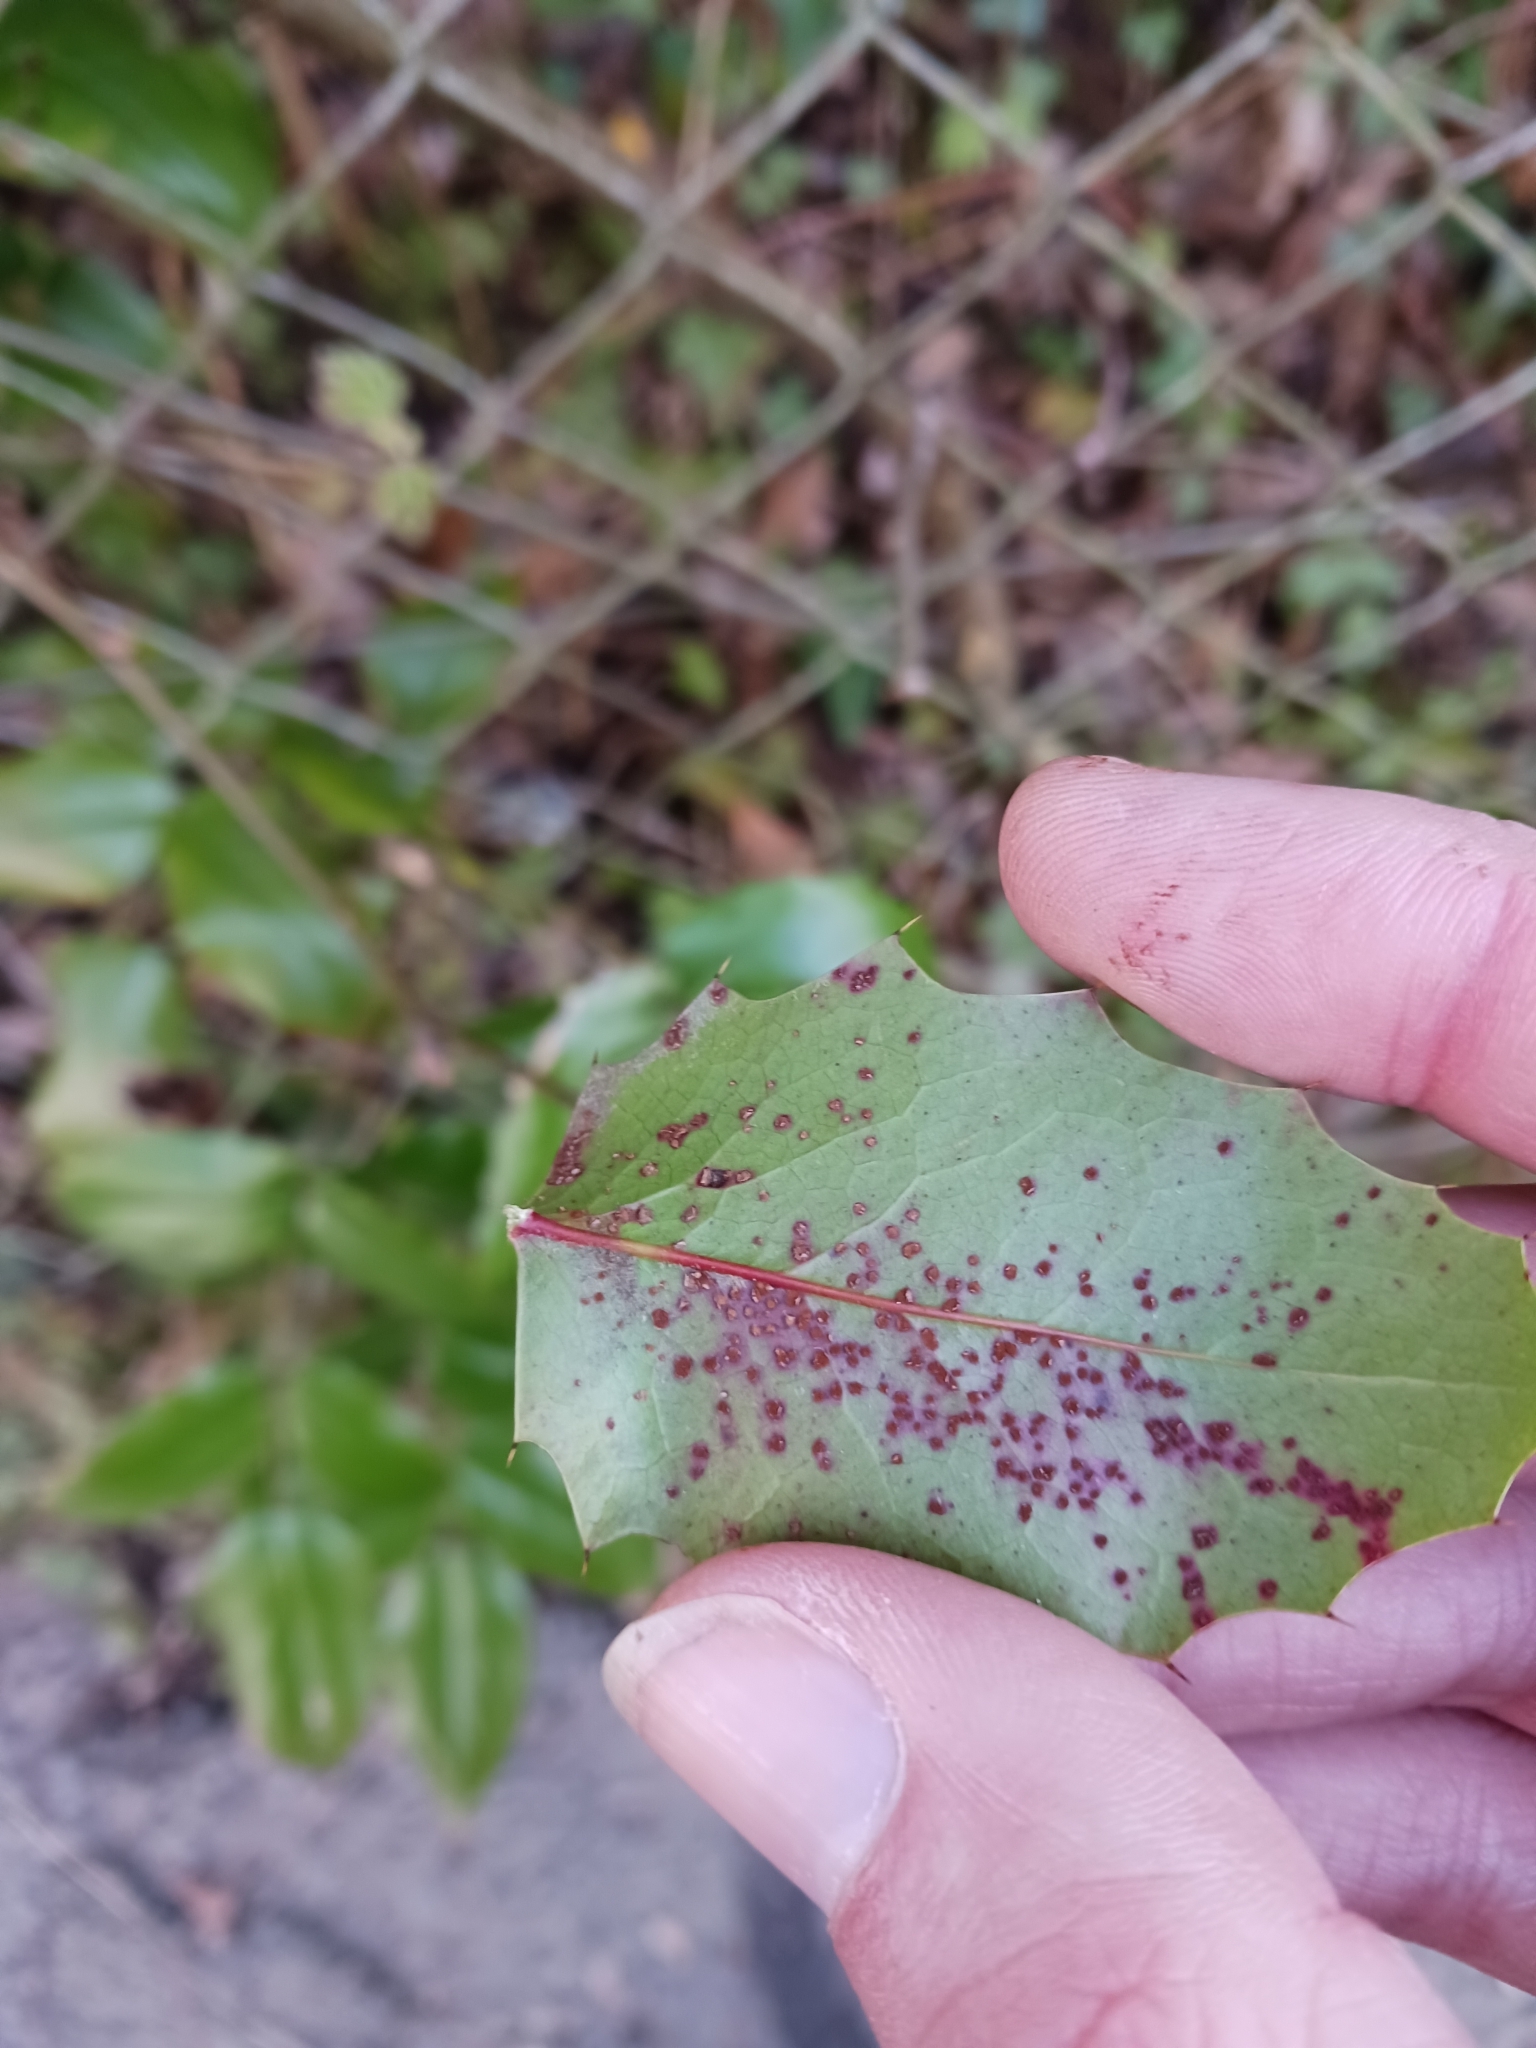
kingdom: Fungi
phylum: Basidiomycota
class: Pucciniomycetes
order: Pucciniales
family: Pucciniaceae
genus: Cumminsiella
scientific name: Cumminsiella mirabilissima
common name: Mahonia rust
